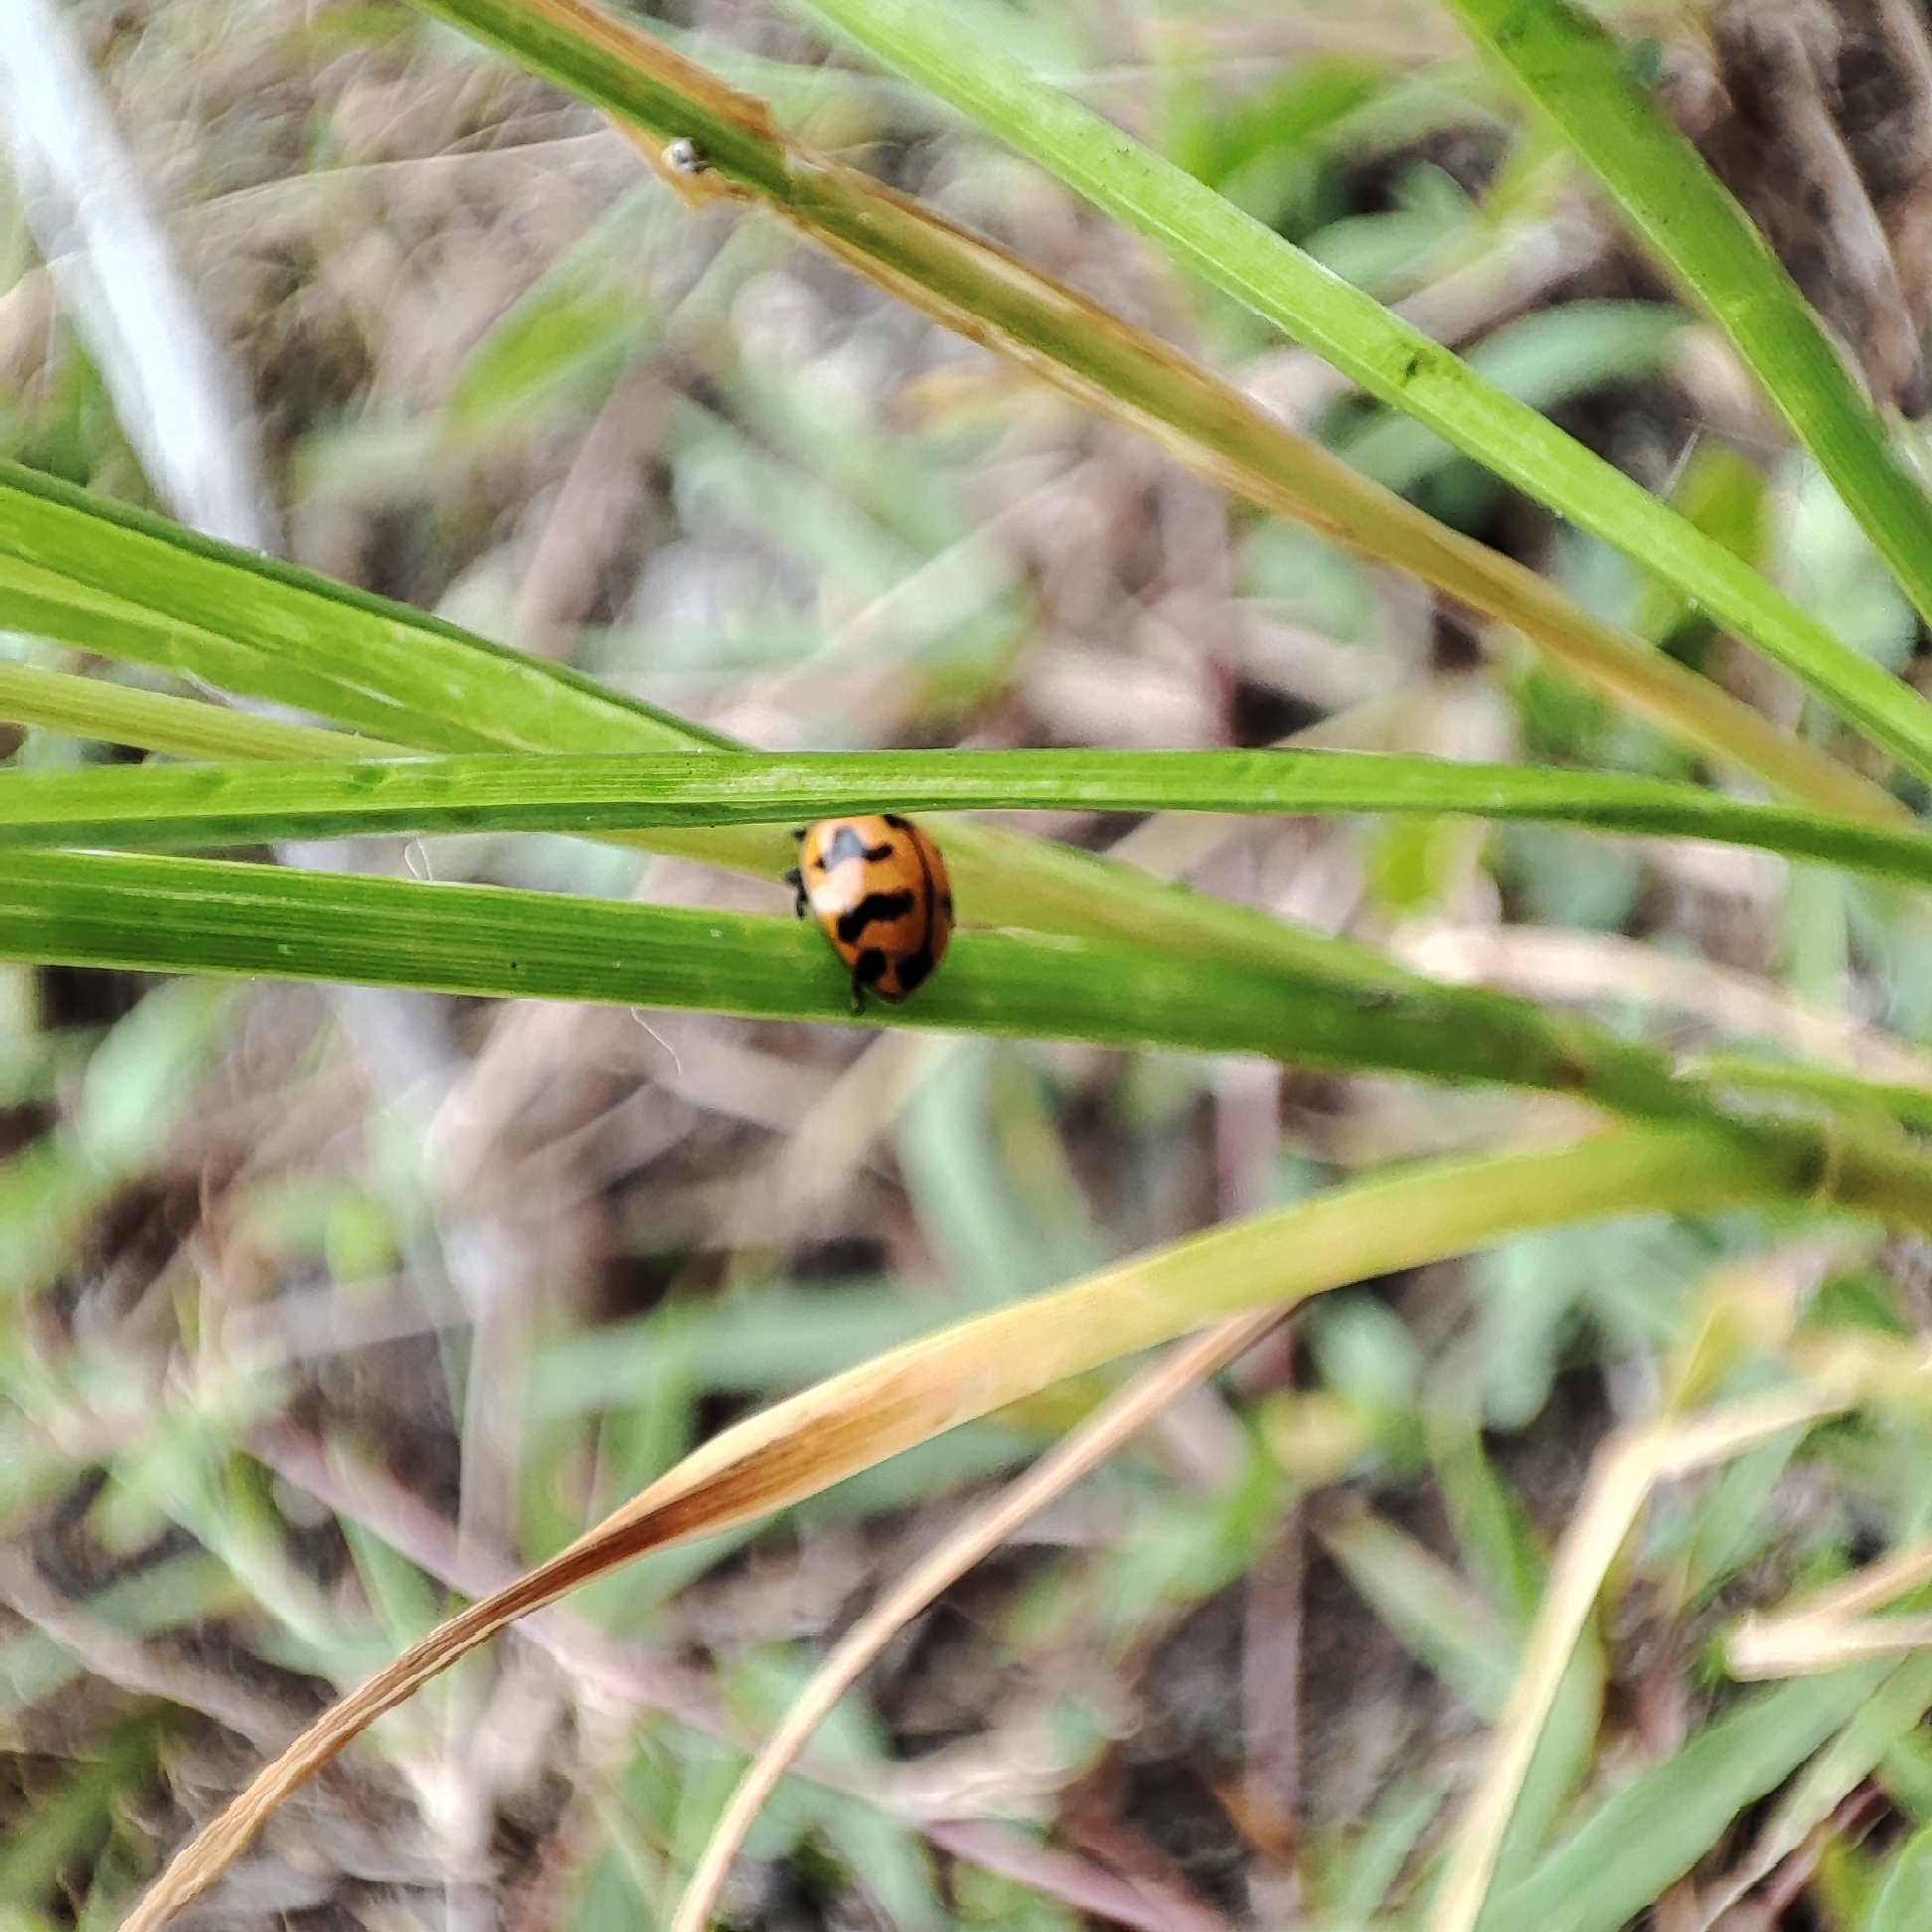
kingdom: Animalia
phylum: Arthropoda
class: Insecta
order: Coleoptera
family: Coccinellidae
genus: Coccinella
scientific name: Coccinella transversalis
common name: Transverse lady beetle
